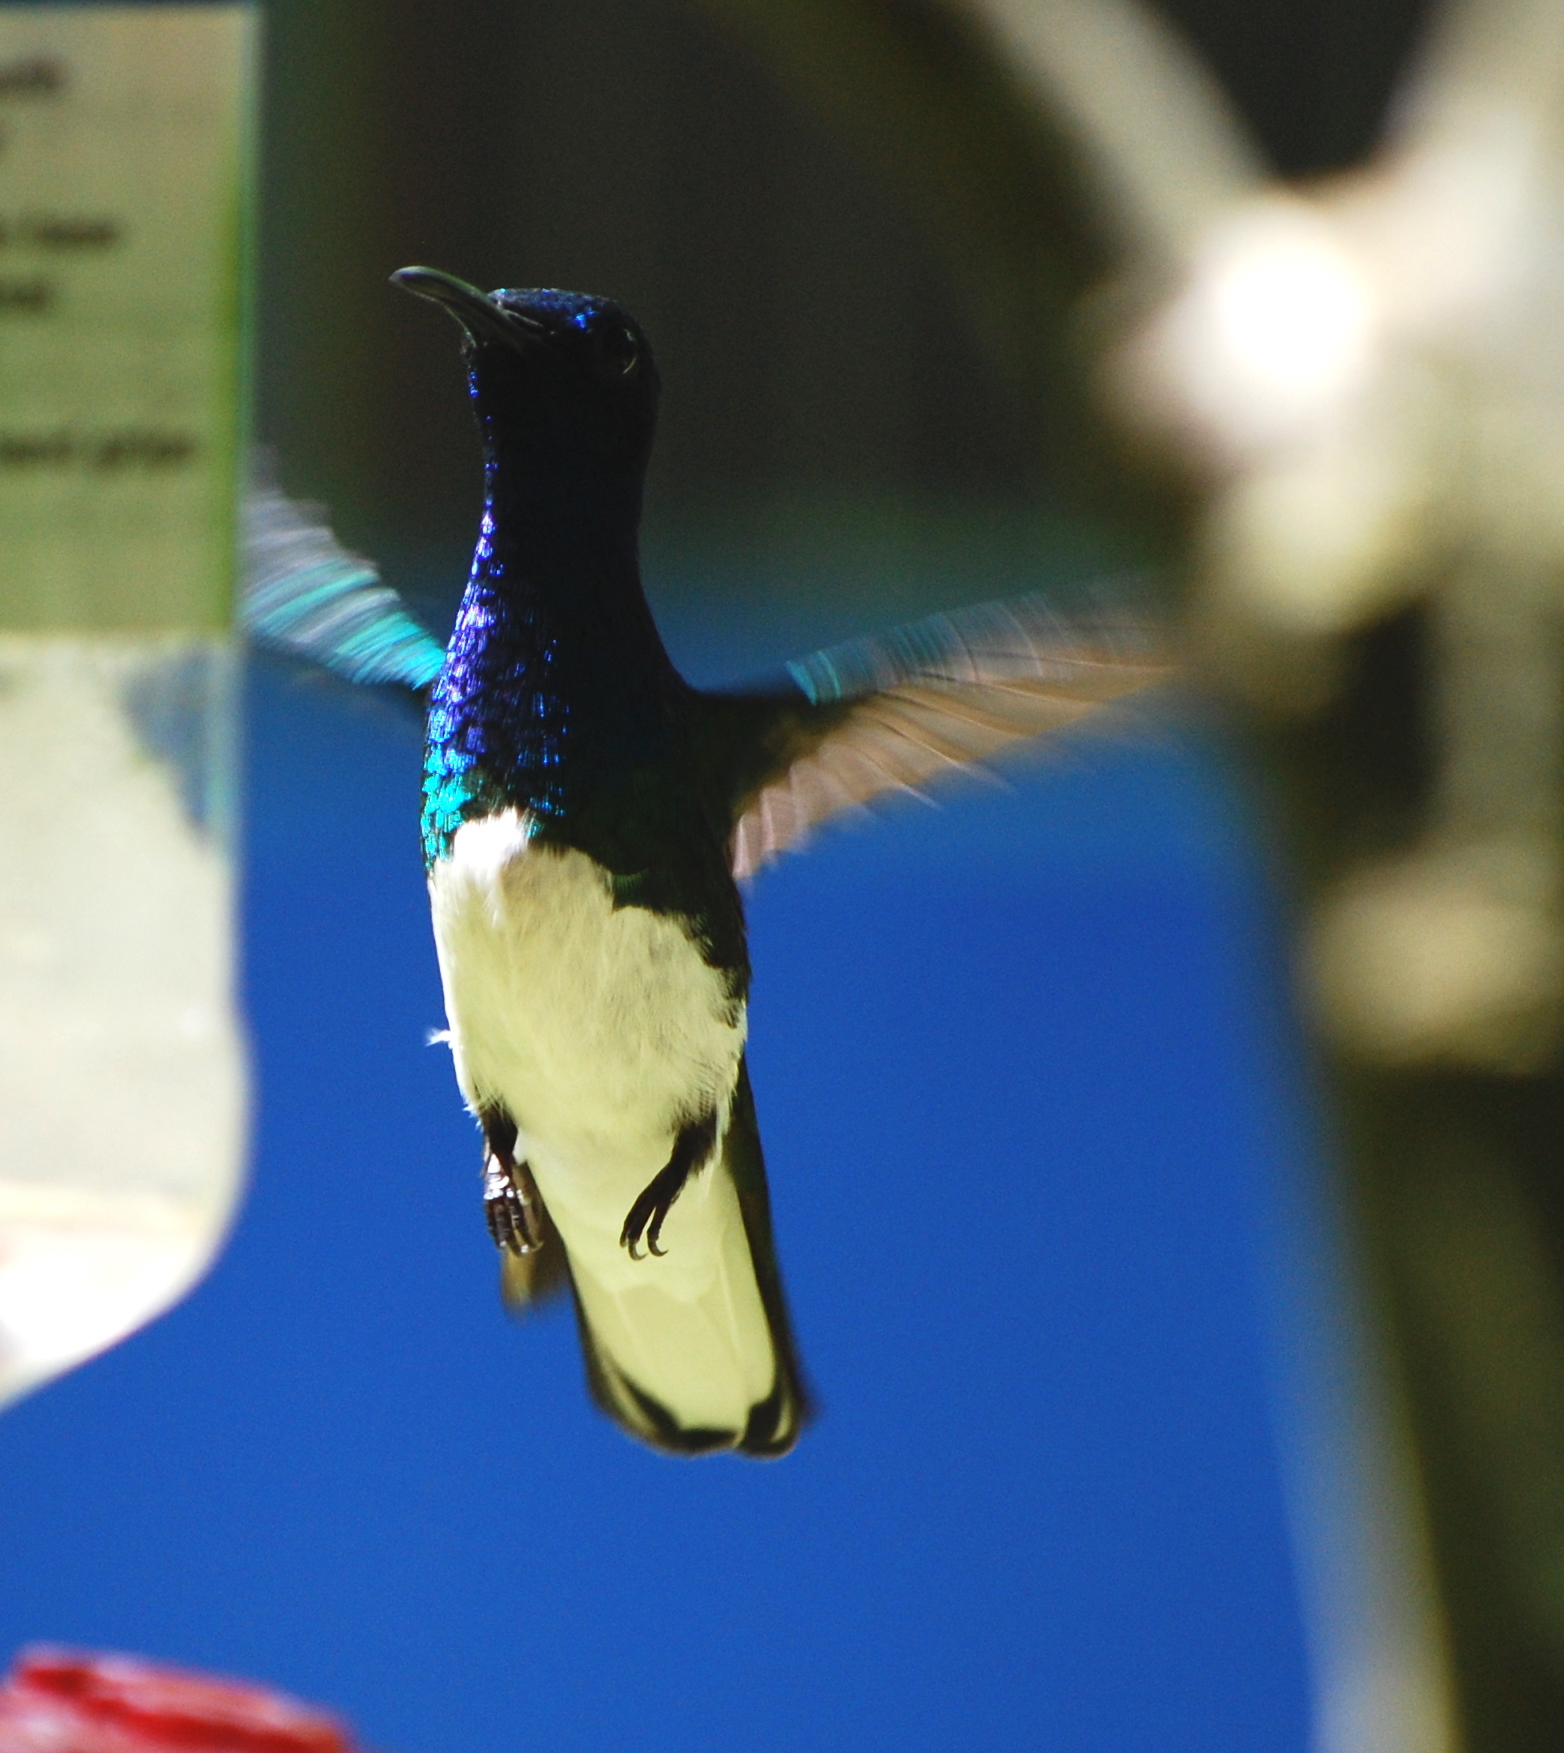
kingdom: Animalia
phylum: Chordata
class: Aves
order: Apodiformes
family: Trochilidae
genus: Florisuga
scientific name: Florisuga mellivora
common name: White-necked jacobin
